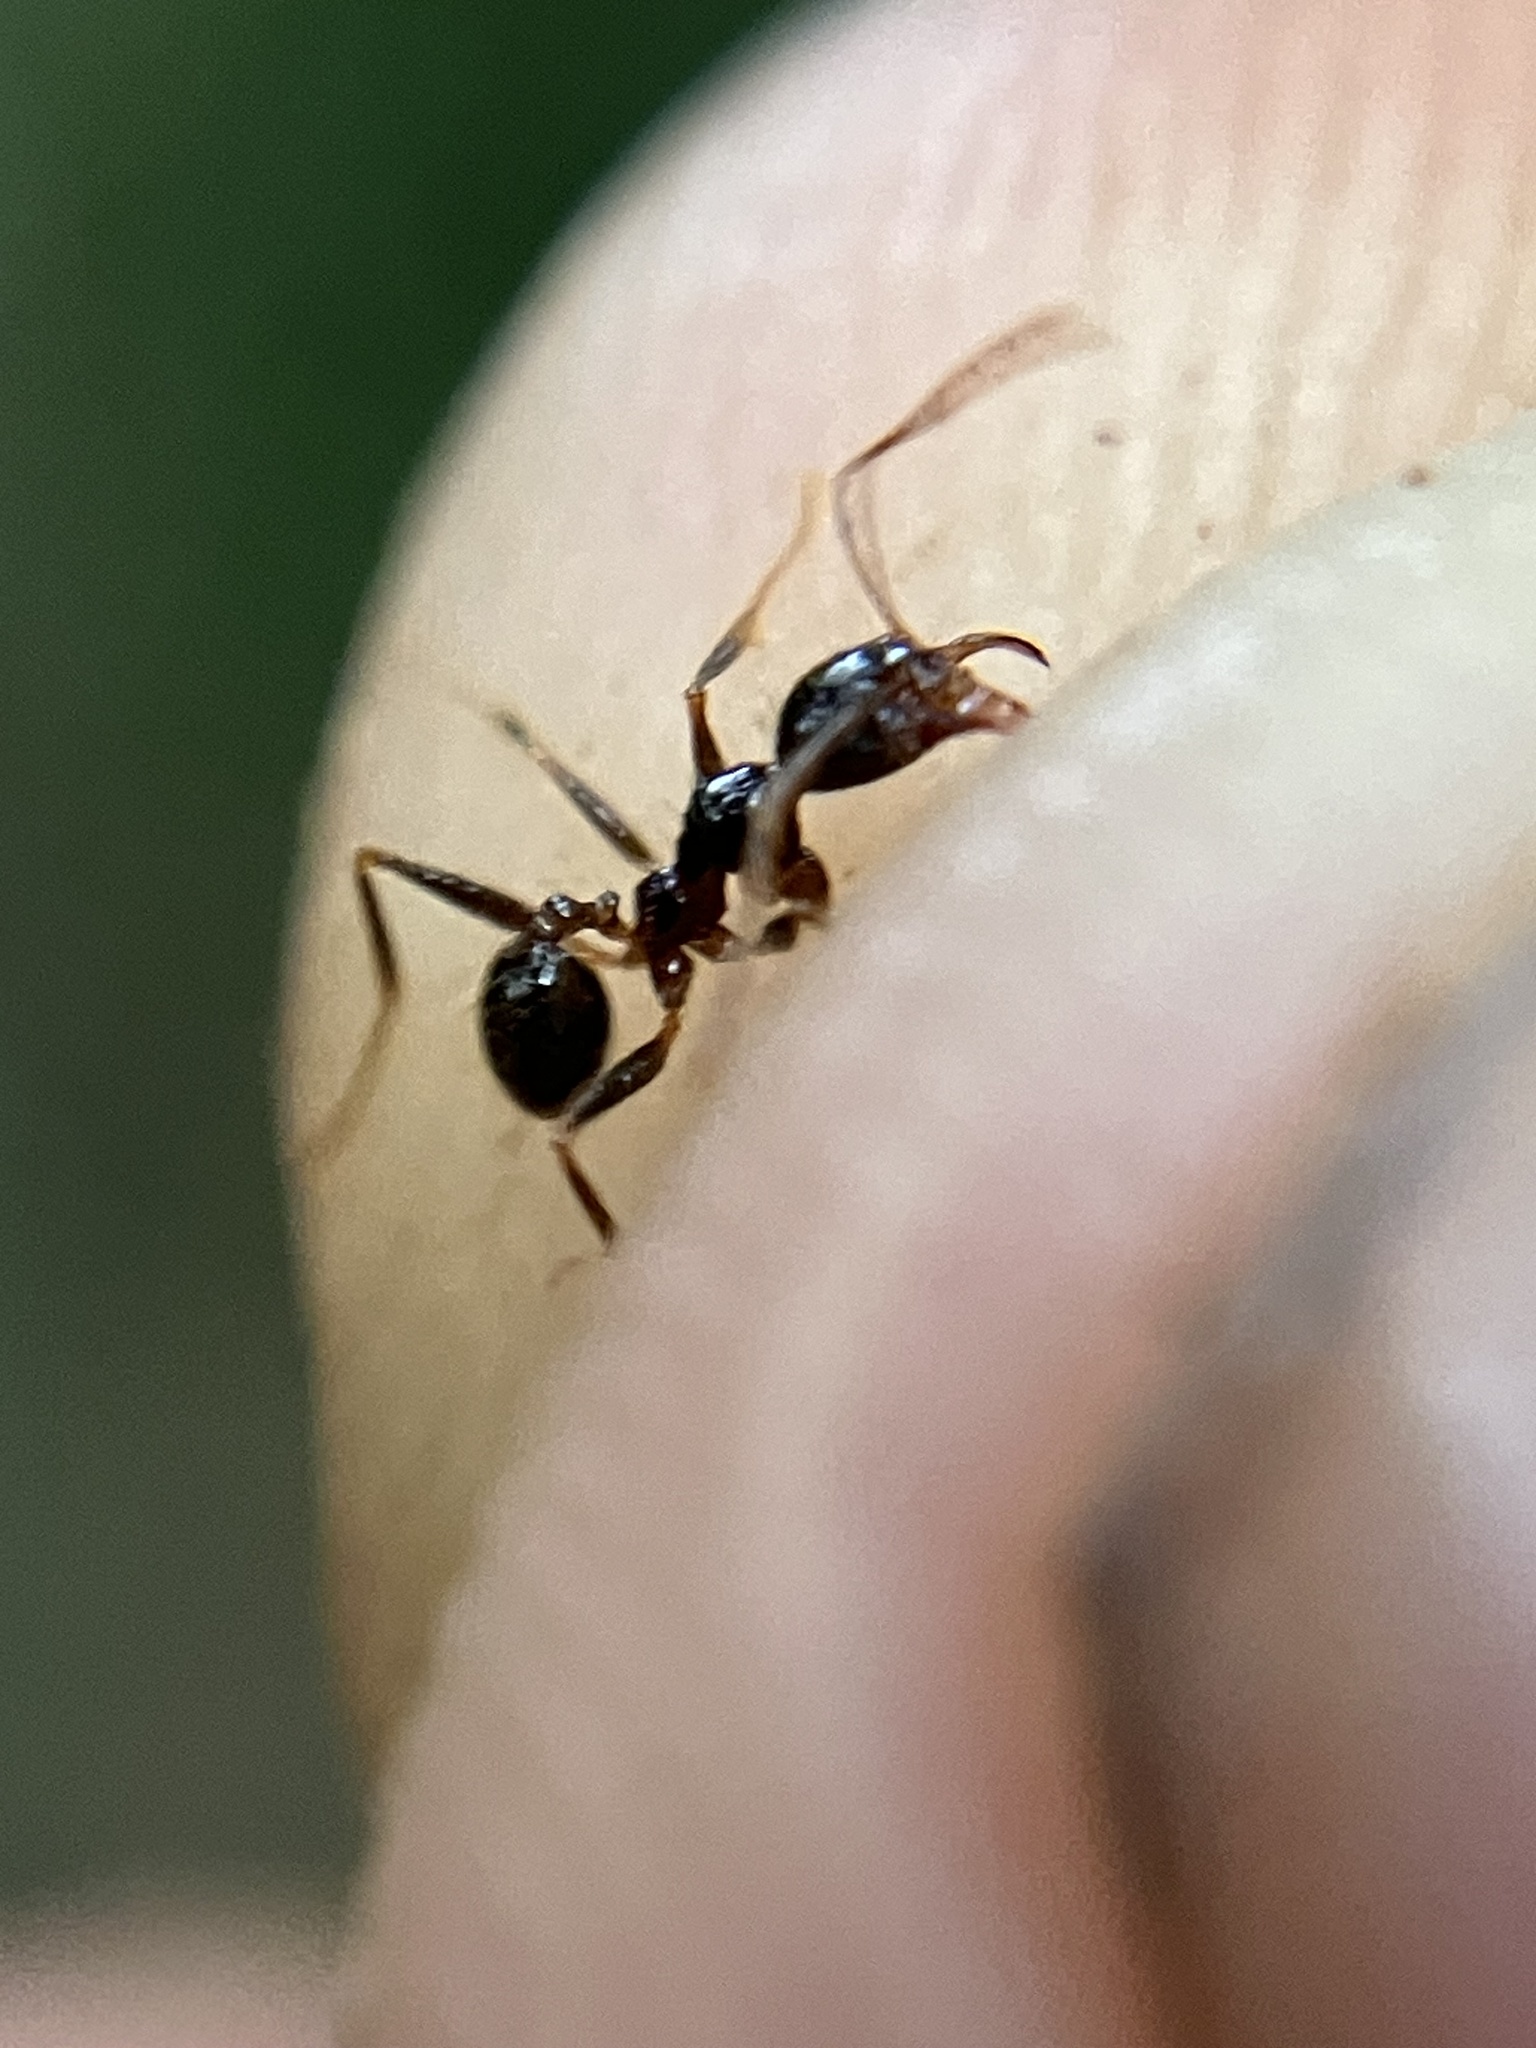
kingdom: Animalia
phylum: Arthropoda
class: Insecta
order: Hymenoptera
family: Formicidae
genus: Pheidole
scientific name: Pheidole phipsoni
